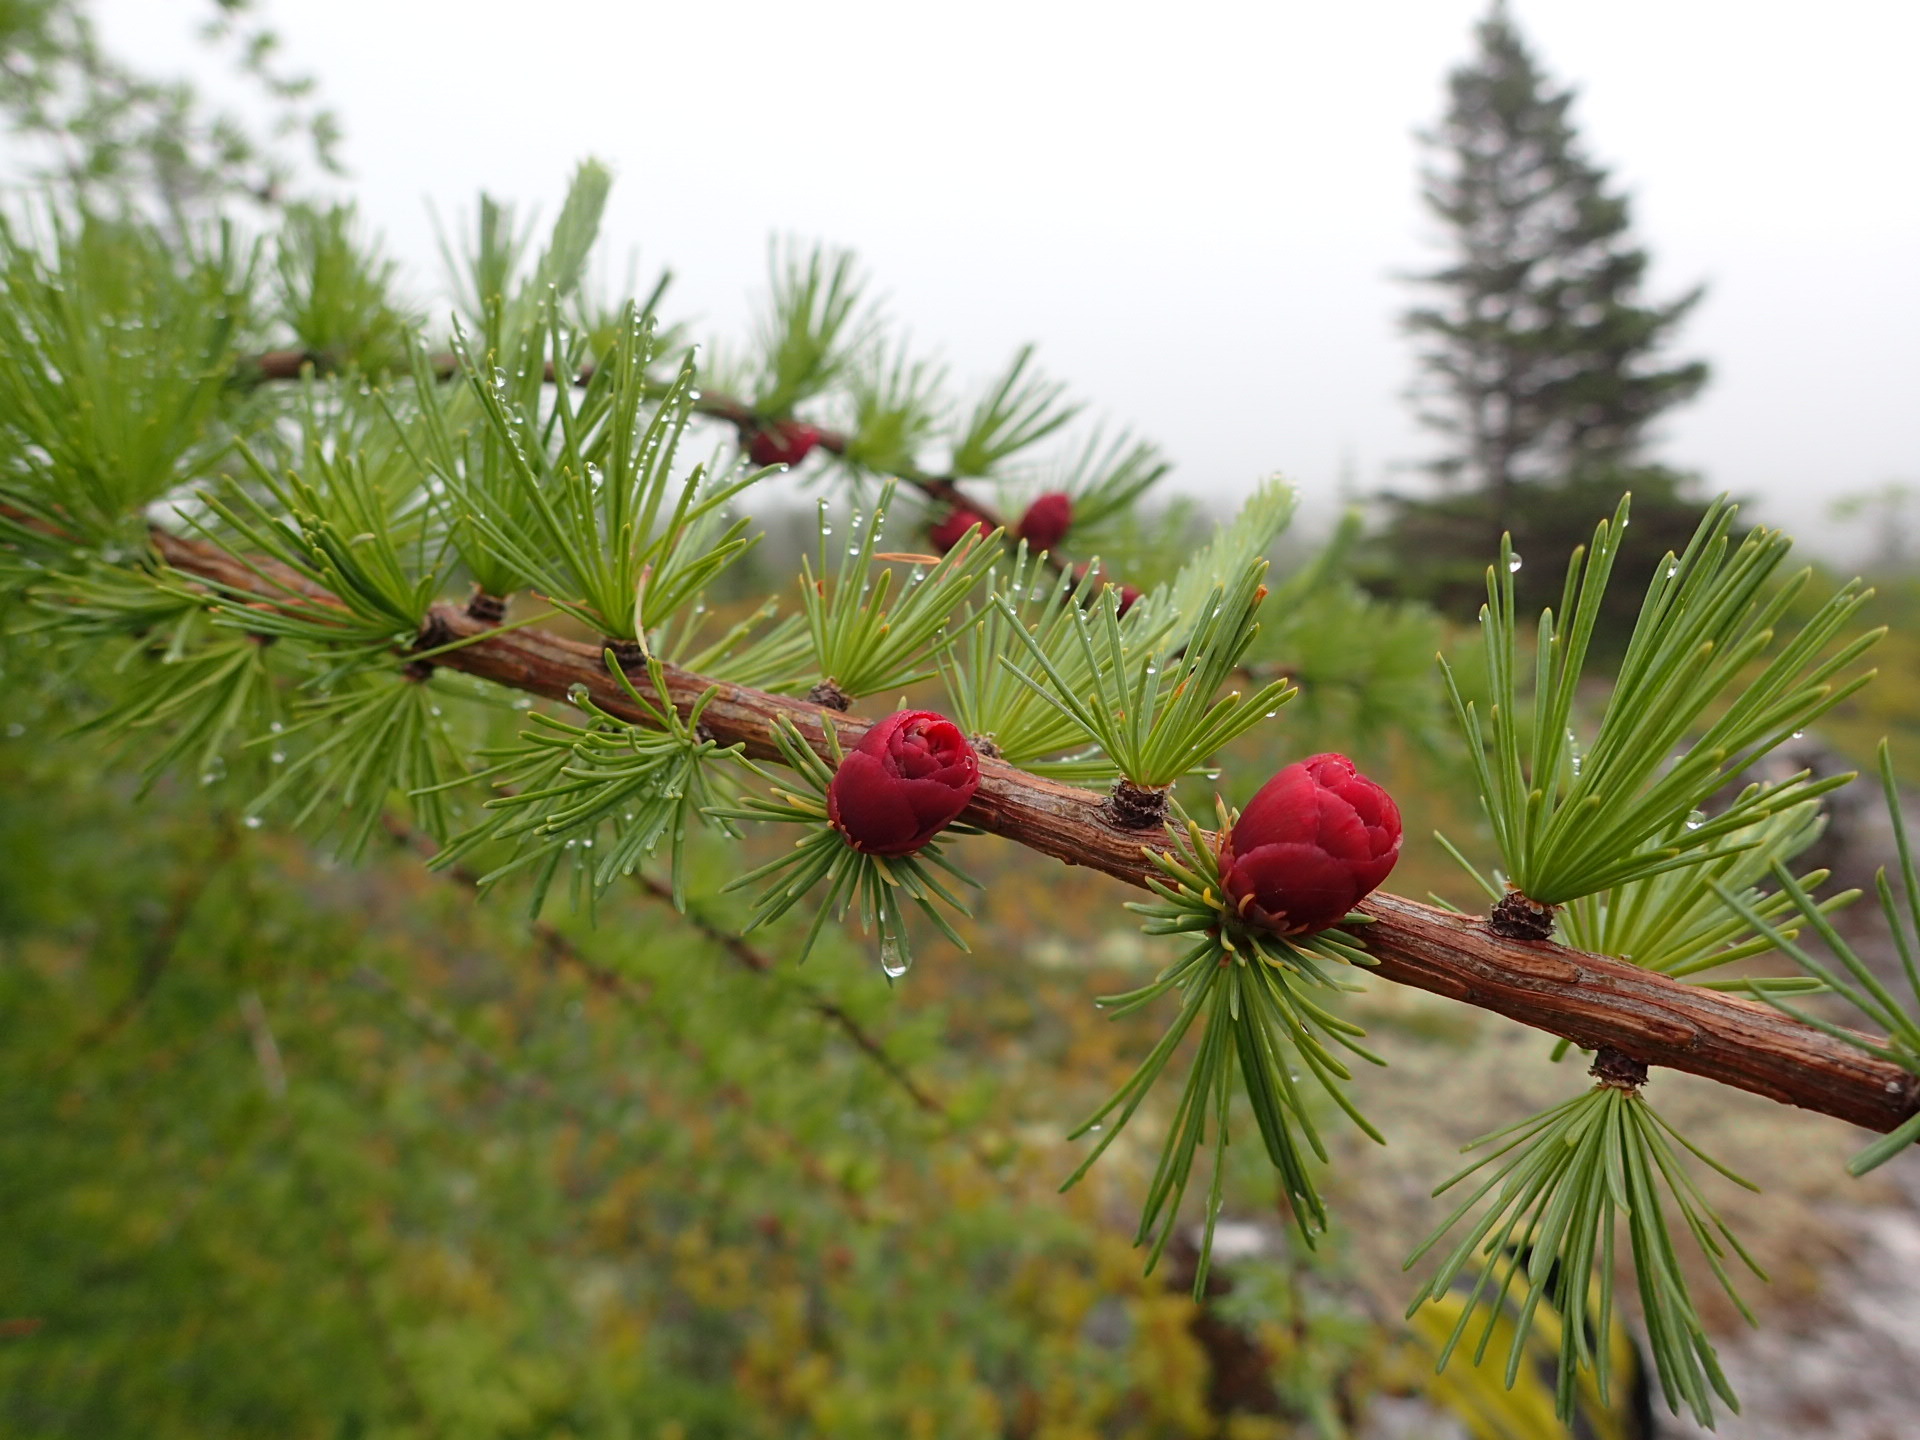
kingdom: Plantae
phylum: Tracheophyta
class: Pinopsida
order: Pinales
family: Pinaceae
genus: Larix
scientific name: Larix laricina
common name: American larch
